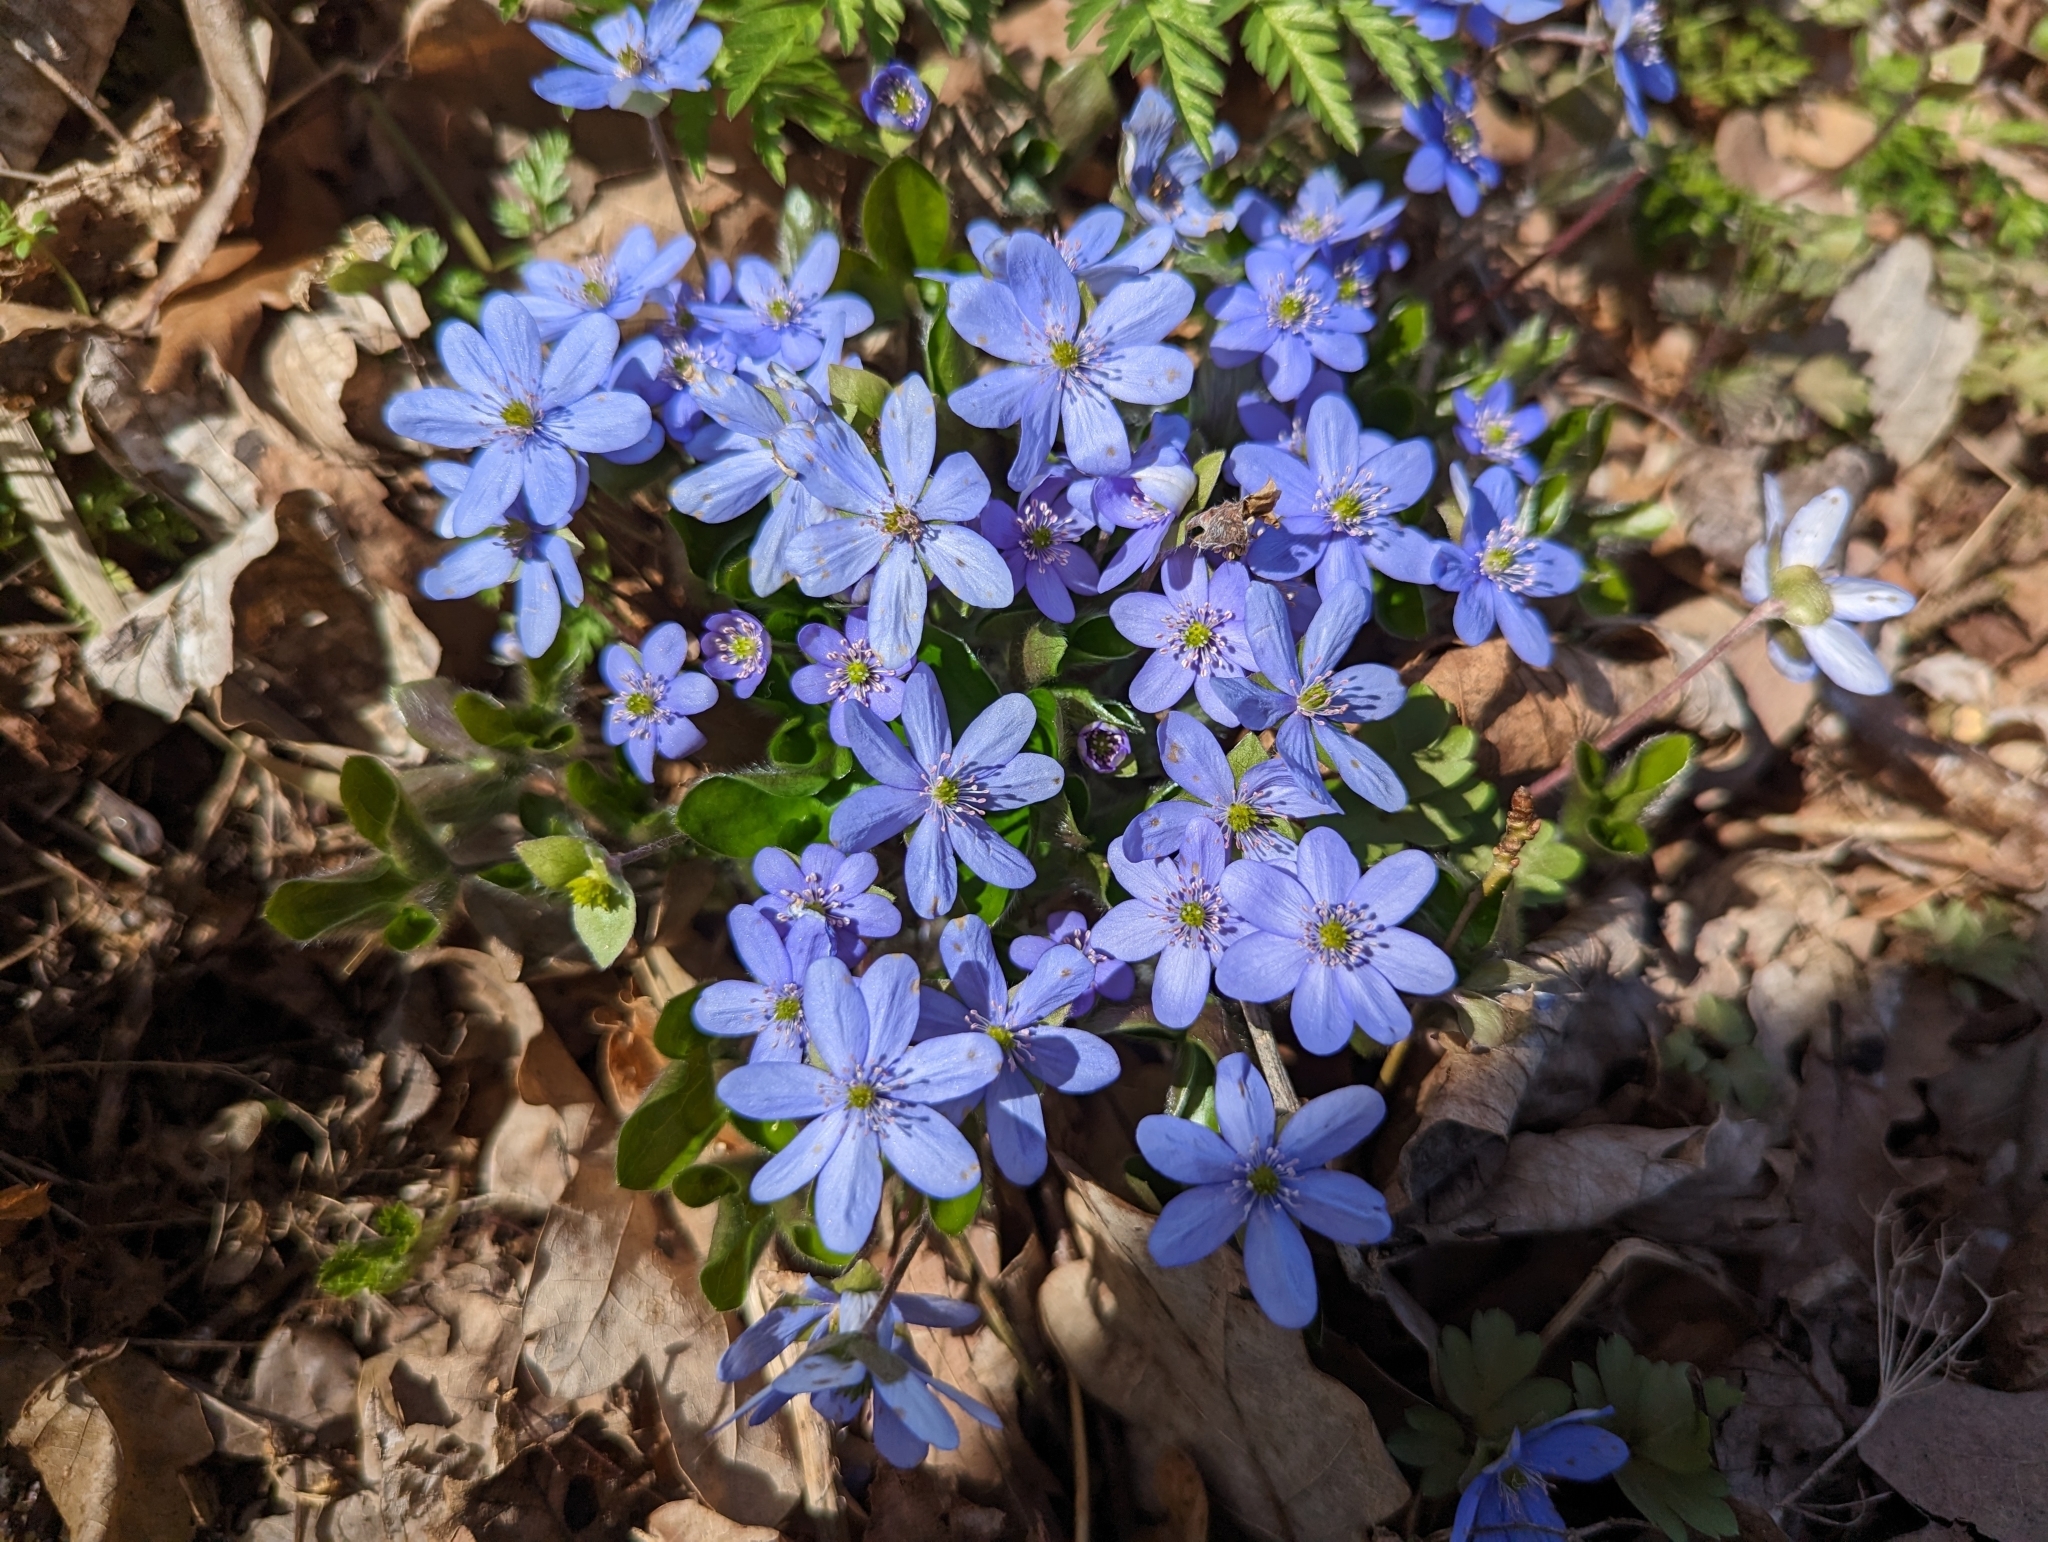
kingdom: Plantae
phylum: Tracheophyta
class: Magnoliopsida
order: Ranunculales
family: Ranunculaceae
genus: Hepatica
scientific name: Hepatica nobilis
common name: Liverleaf
